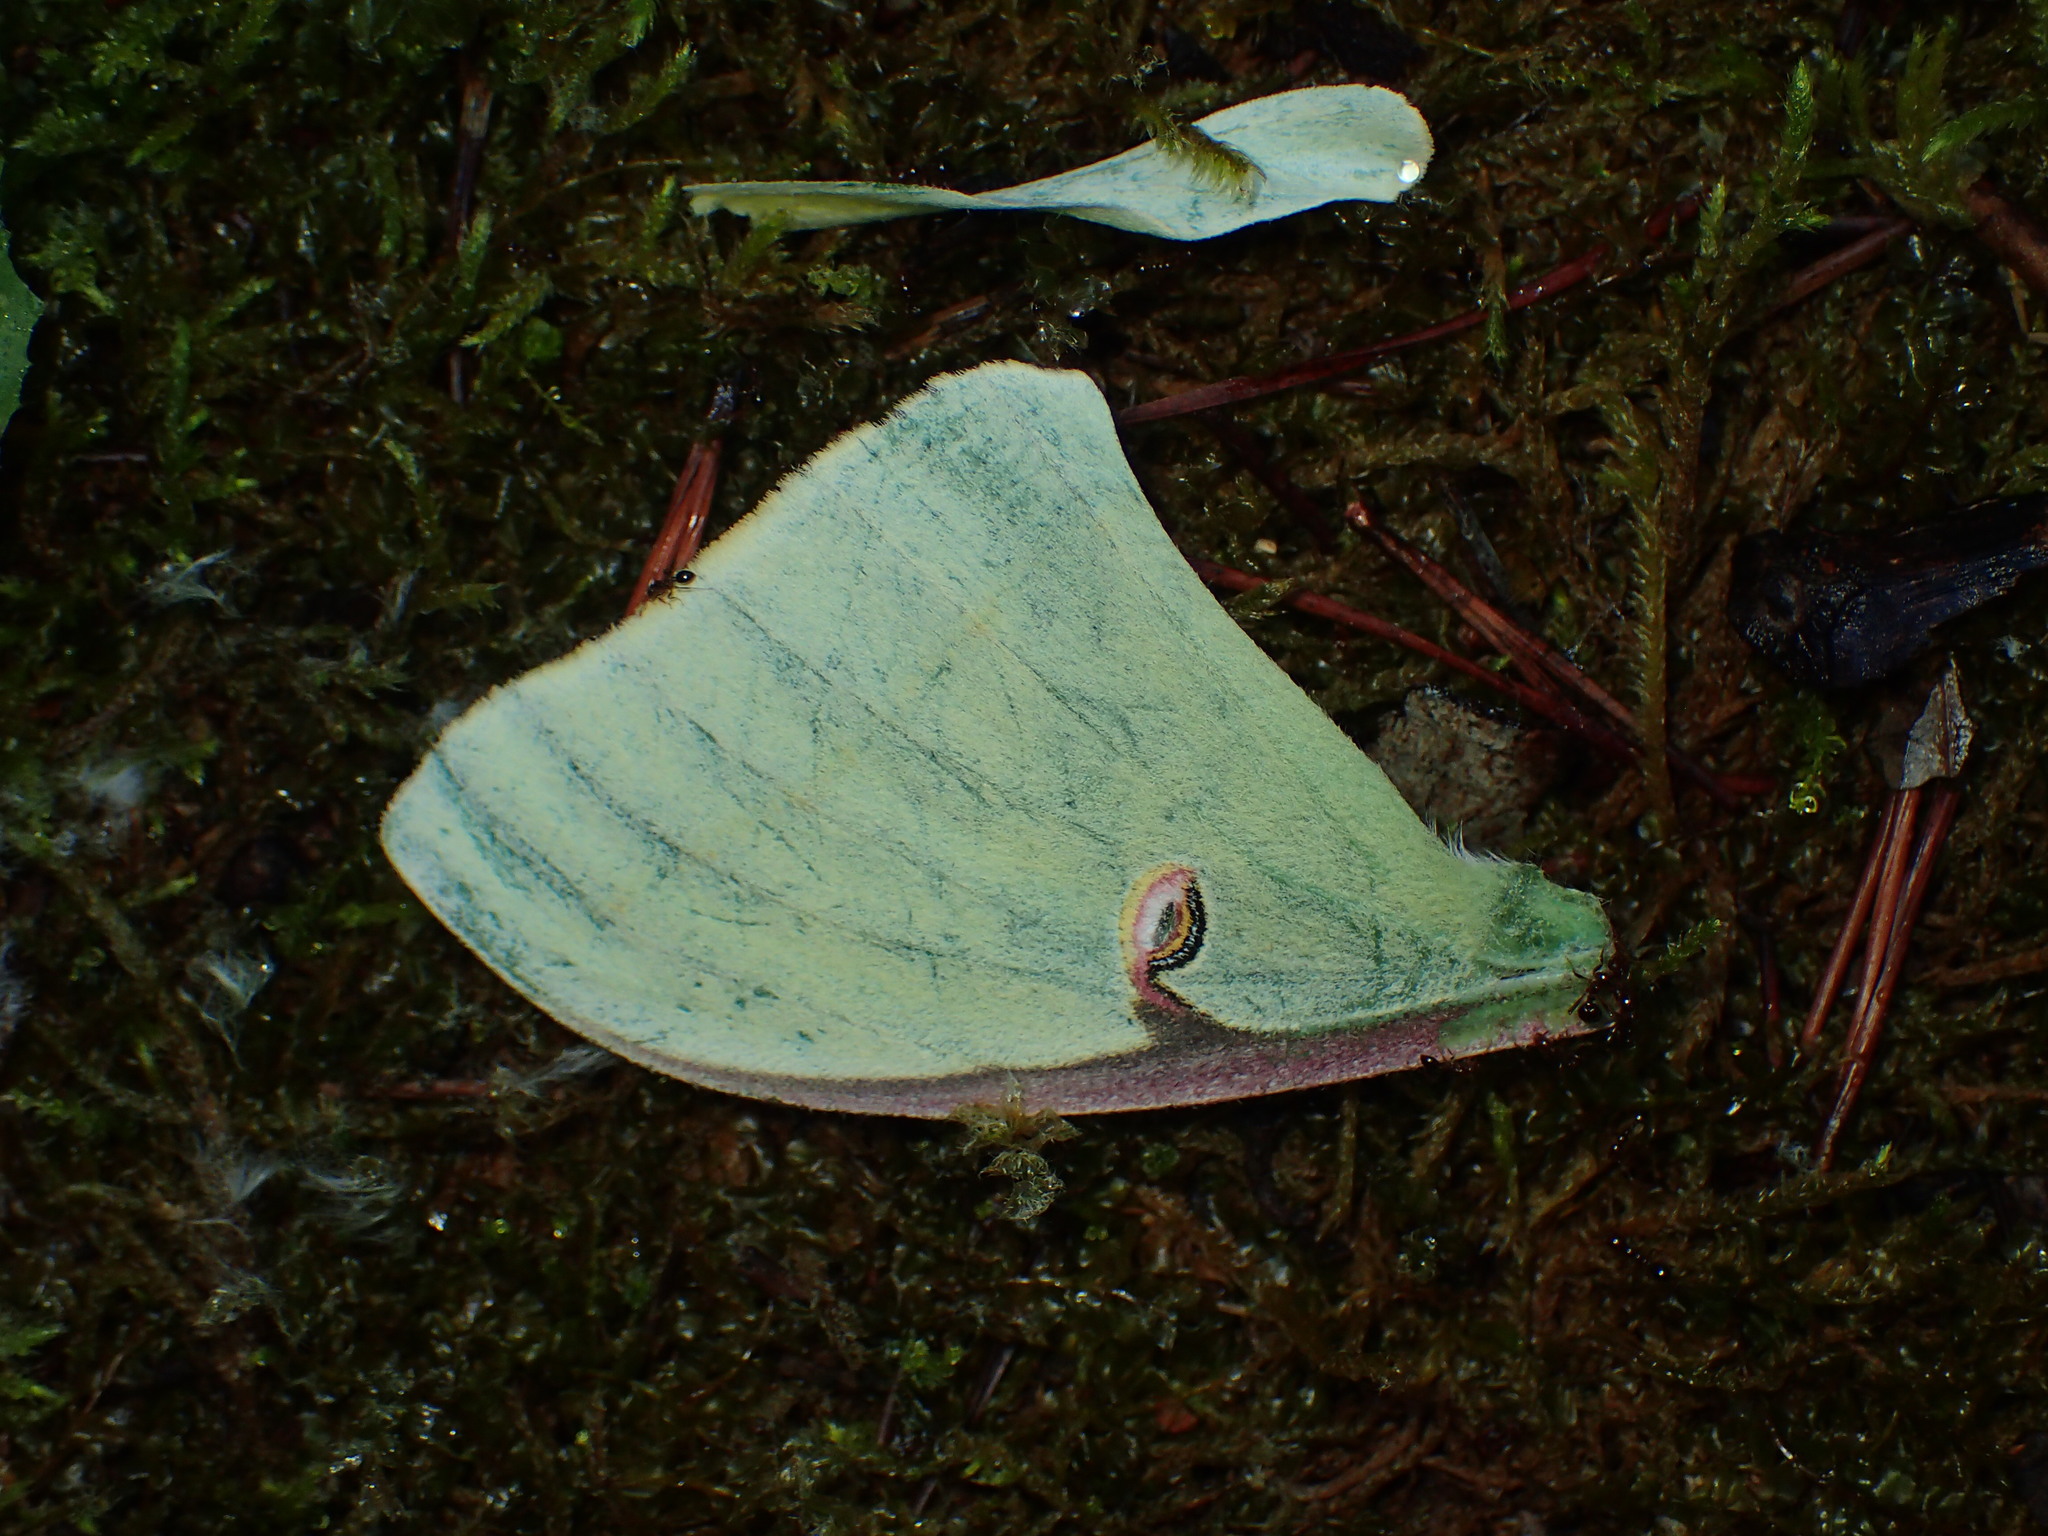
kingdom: Animalia
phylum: Arthropoda
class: Insecta
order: Lepidoptera
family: Saturniidae
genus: Actias
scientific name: Actias luna
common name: Luna moth
